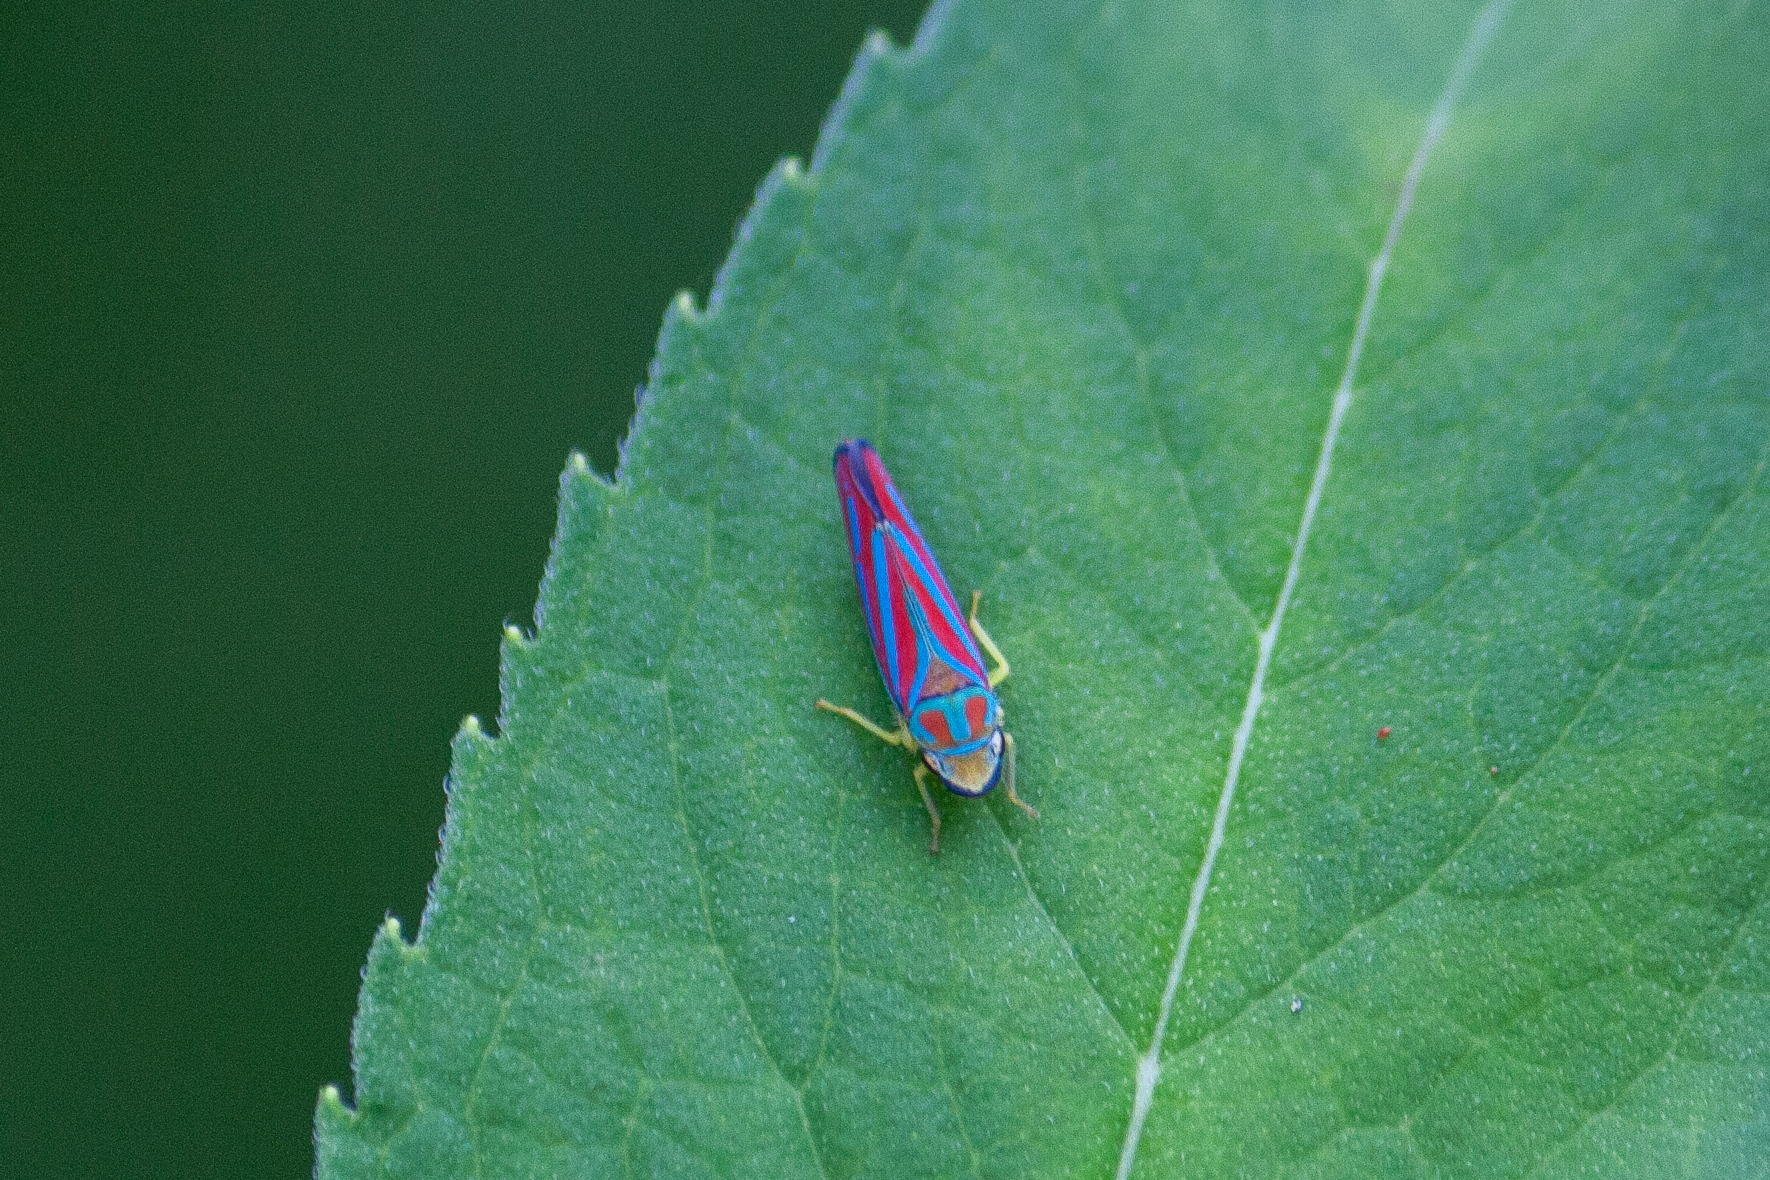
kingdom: Animalia
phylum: Arthropoda
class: Insecta
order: Hemiptera
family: Cicadellidae
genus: Graphocephala
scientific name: Graphocephala coccinea
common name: Candy-striped leafhopper
